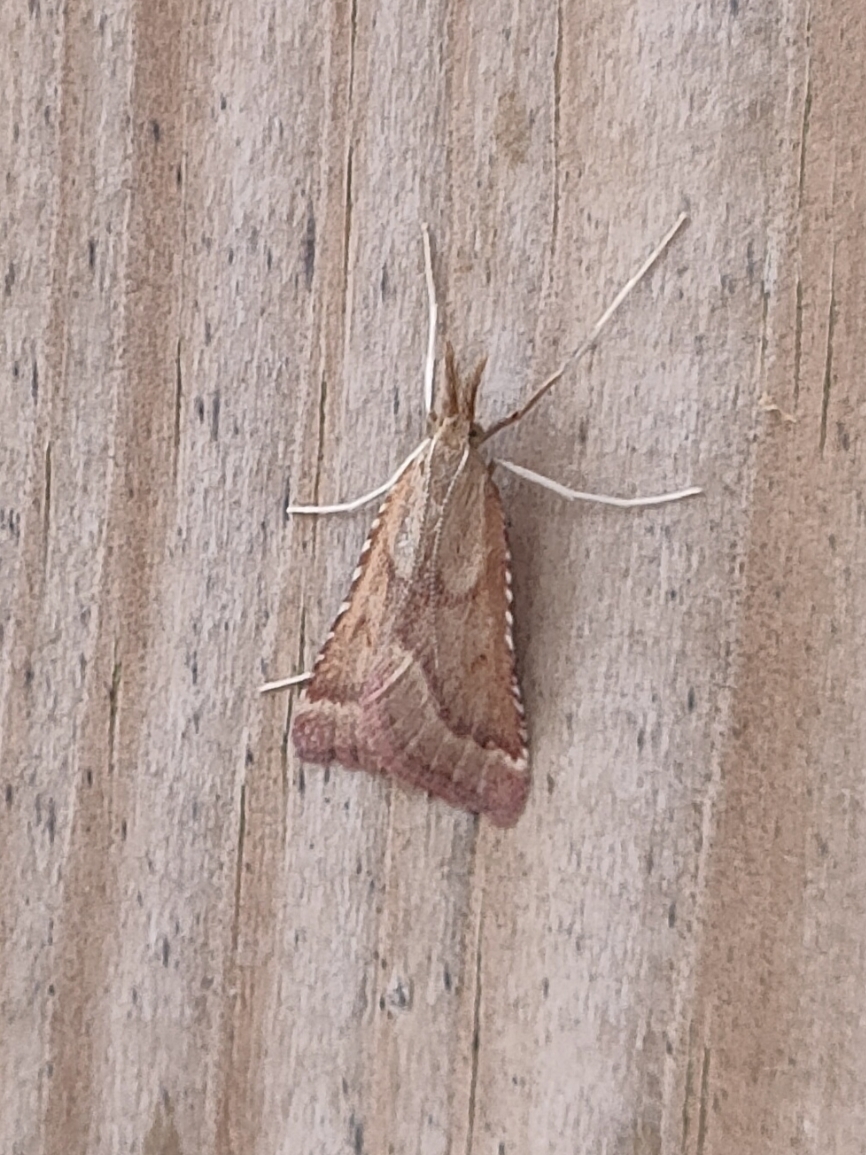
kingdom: Animalia
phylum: Arthropoda
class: Insecta
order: Lepidoptera
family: Pyralidae
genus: Synaphe
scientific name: Synaphe punctalis
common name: Long-legged tabby
